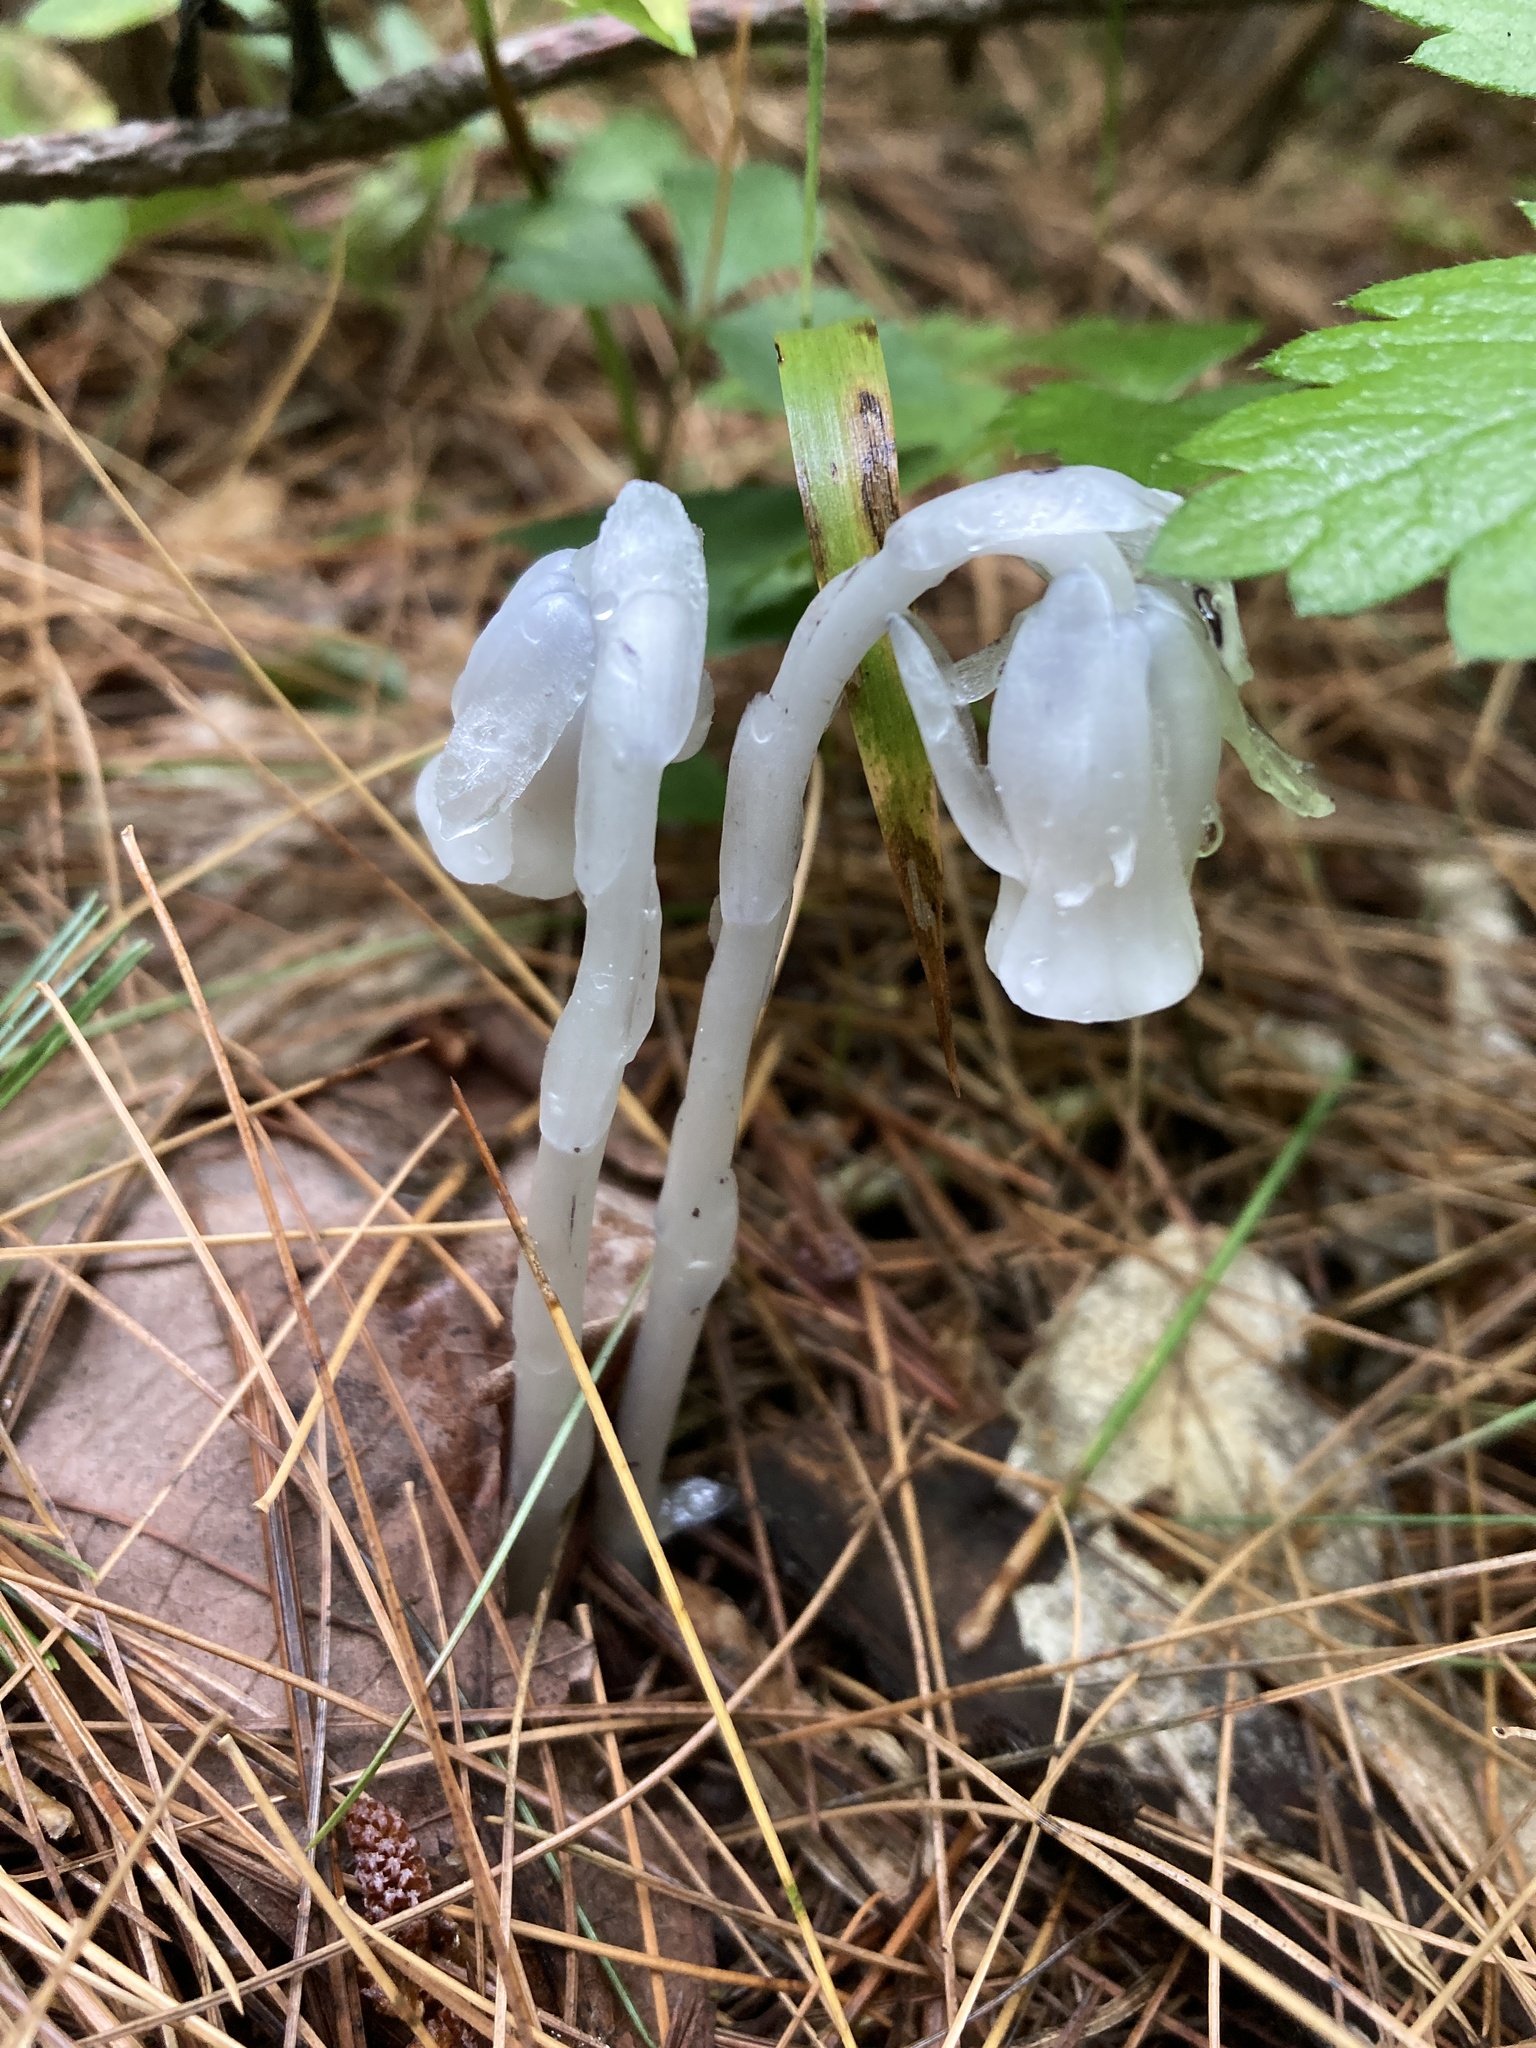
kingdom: Plantae
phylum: Tracheophyta
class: Magnoliopsida
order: Ericales
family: Ericaceae
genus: Monotropa
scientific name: Monotropa uniflora
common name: Convulsion root
